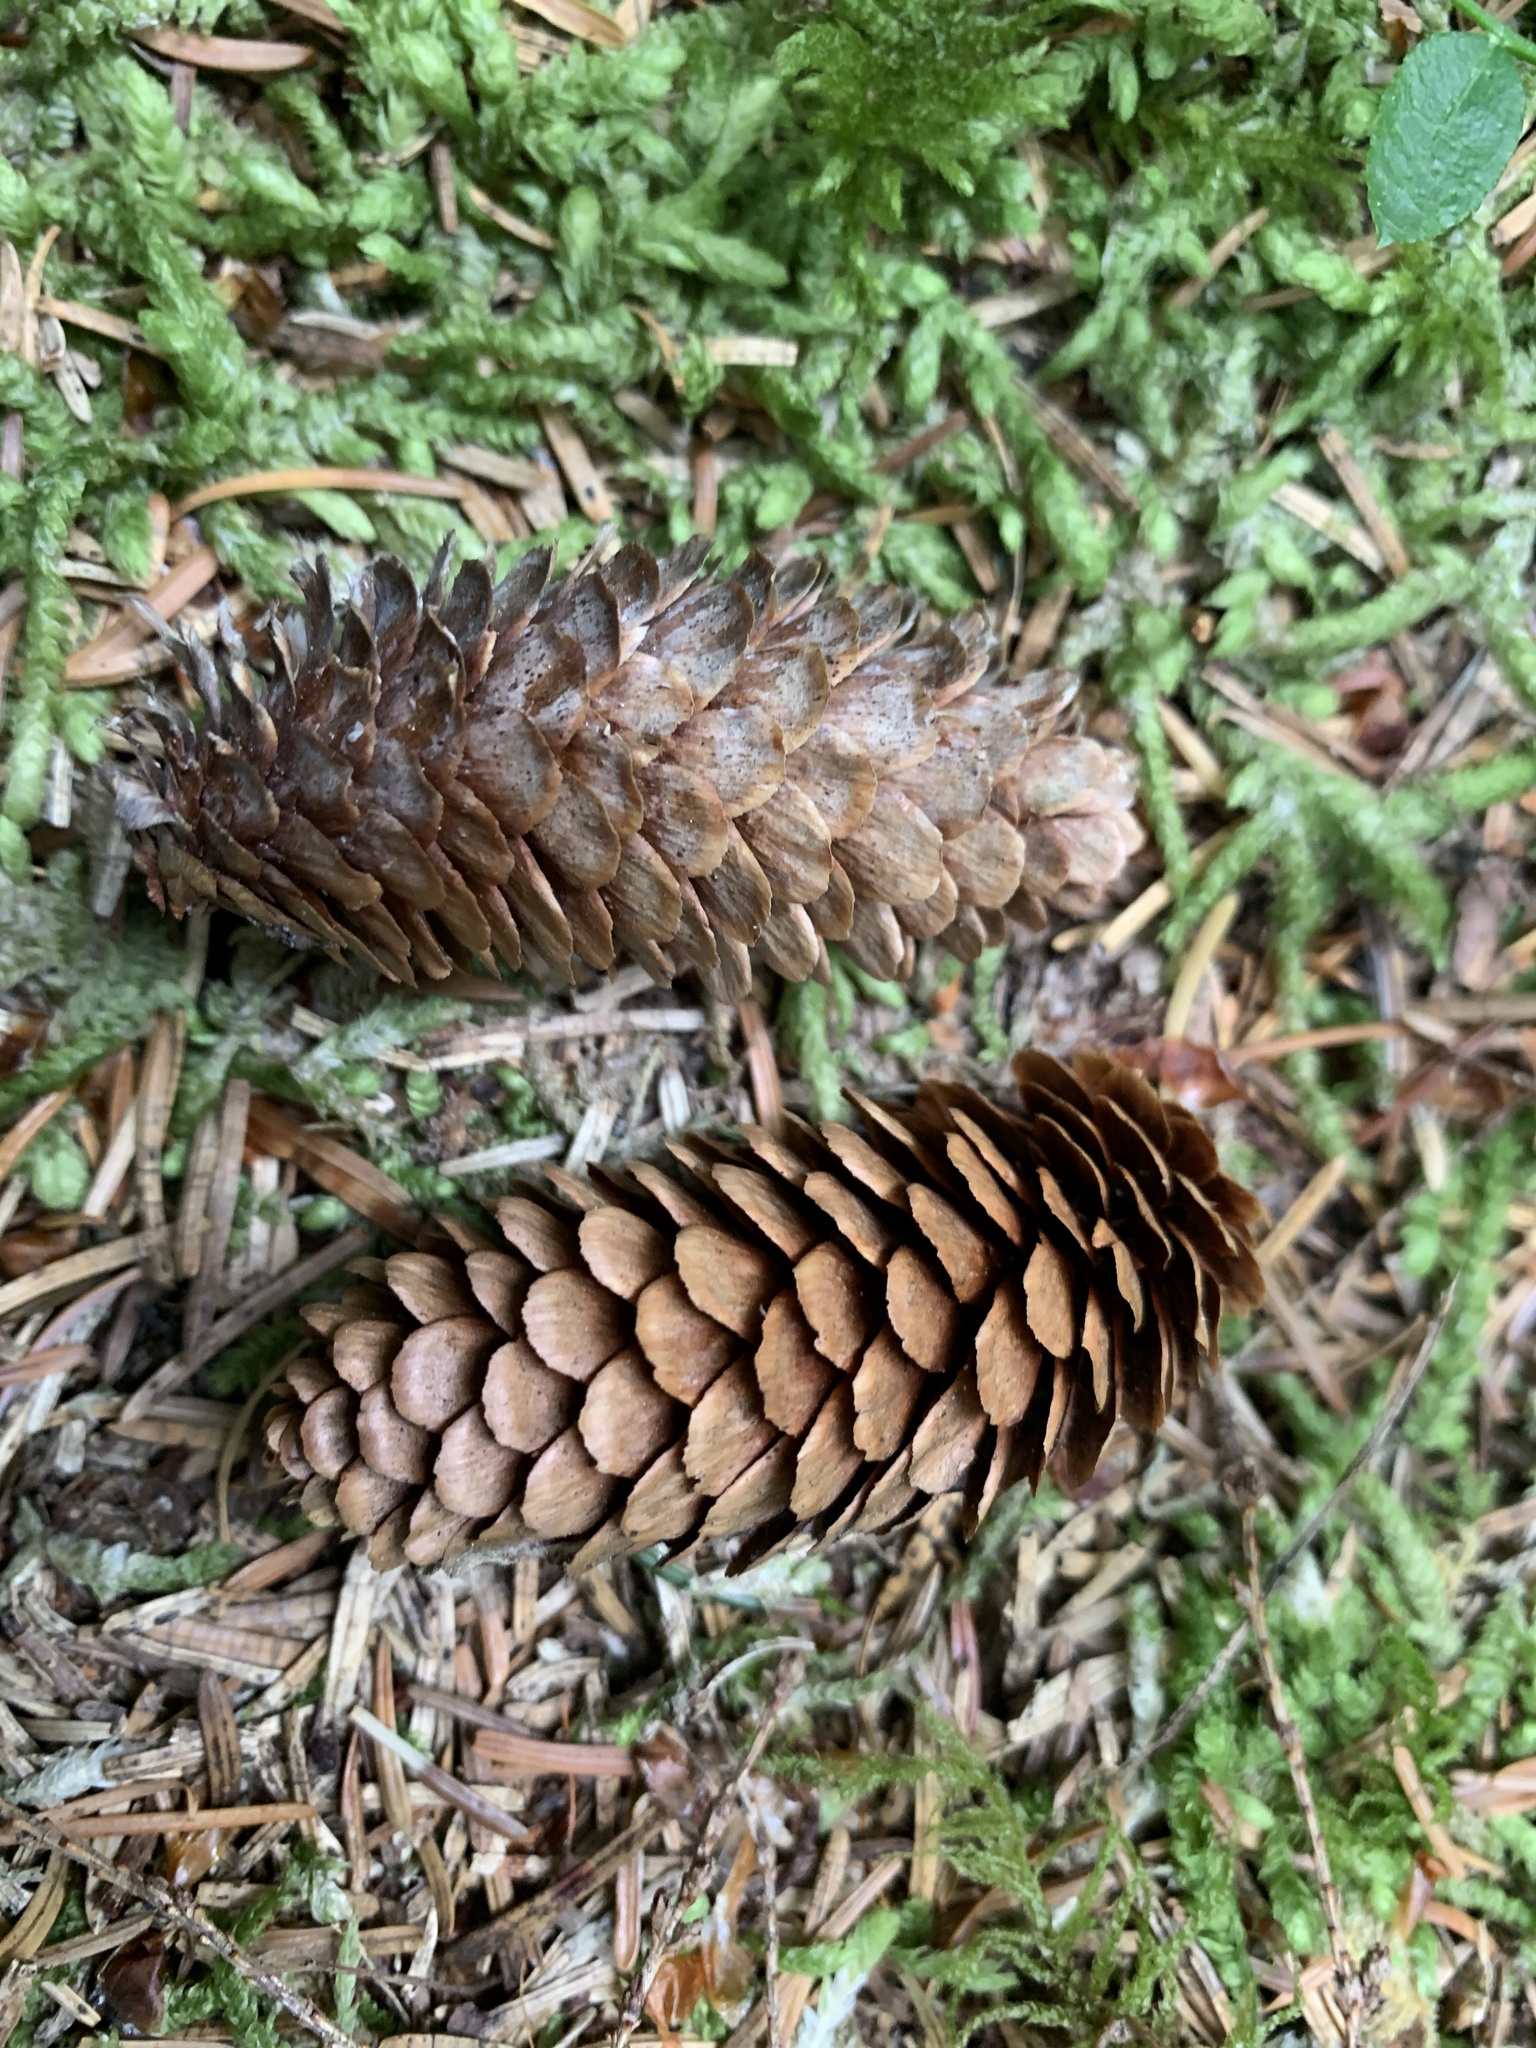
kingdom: Plantae
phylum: Tracheophyta
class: Pinopsida
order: Pinales
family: Pinaceae
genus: Picea
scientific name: Picea sitchensis
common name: Sitka spruce
